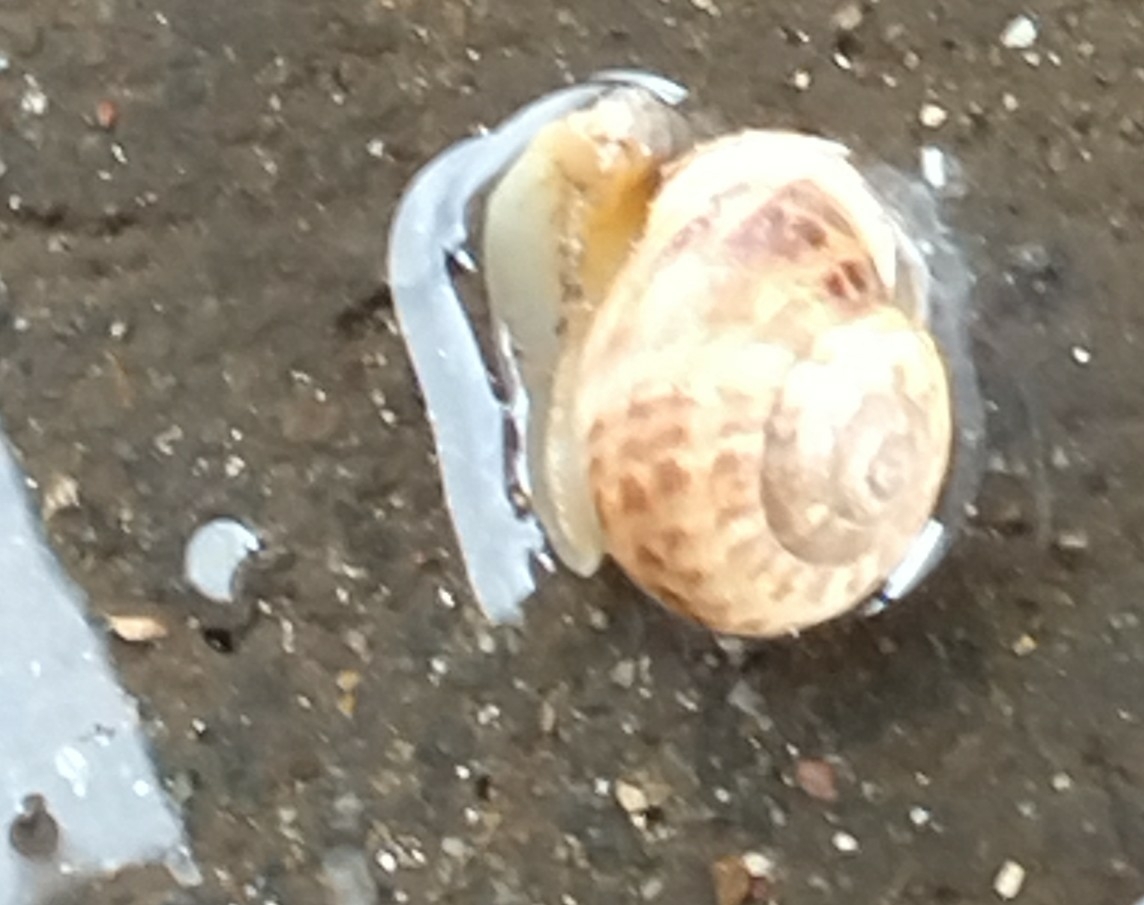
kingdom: Animalia
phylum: Mollusca
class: Gastropoda
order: Stylommatophora
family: Helicidae
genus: Eobania
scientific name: Eobania vermiculata
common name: Chocolateband snail
